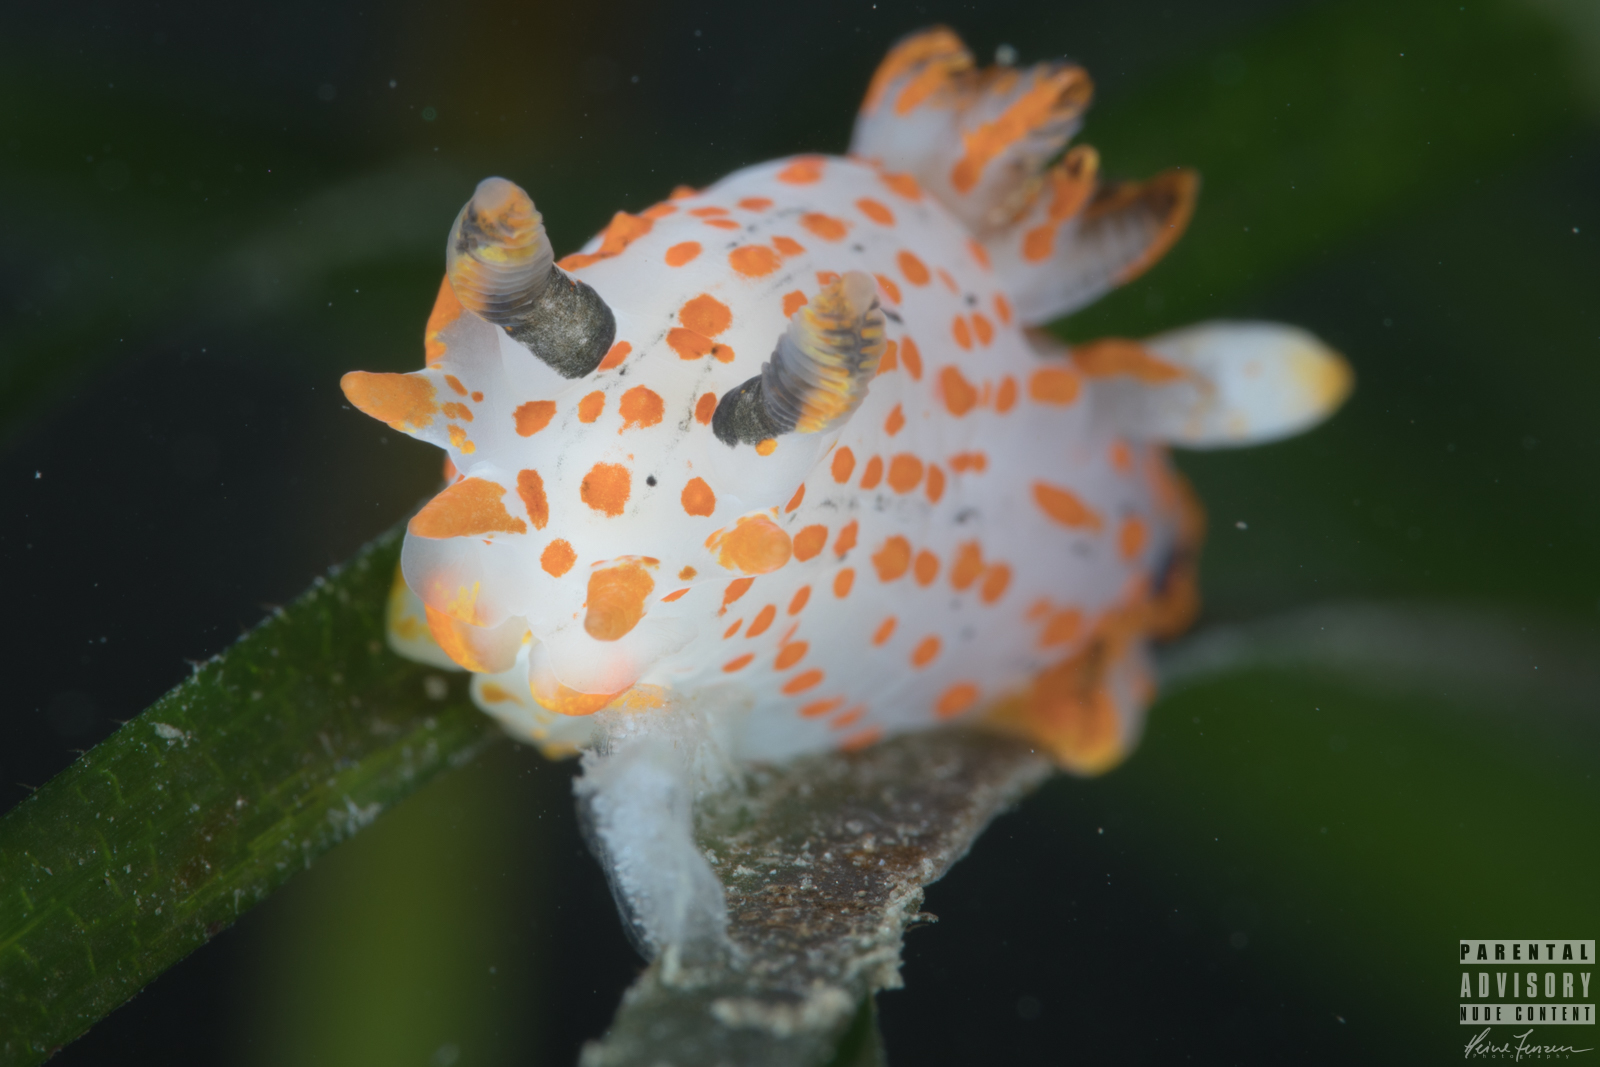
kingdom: Animalia
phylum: Mollusca
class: Gastropoda
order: Nudibranchia
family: Polyceridae
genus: Polycera
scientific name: Polycera quadrilineata
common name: Four-striped polycera
